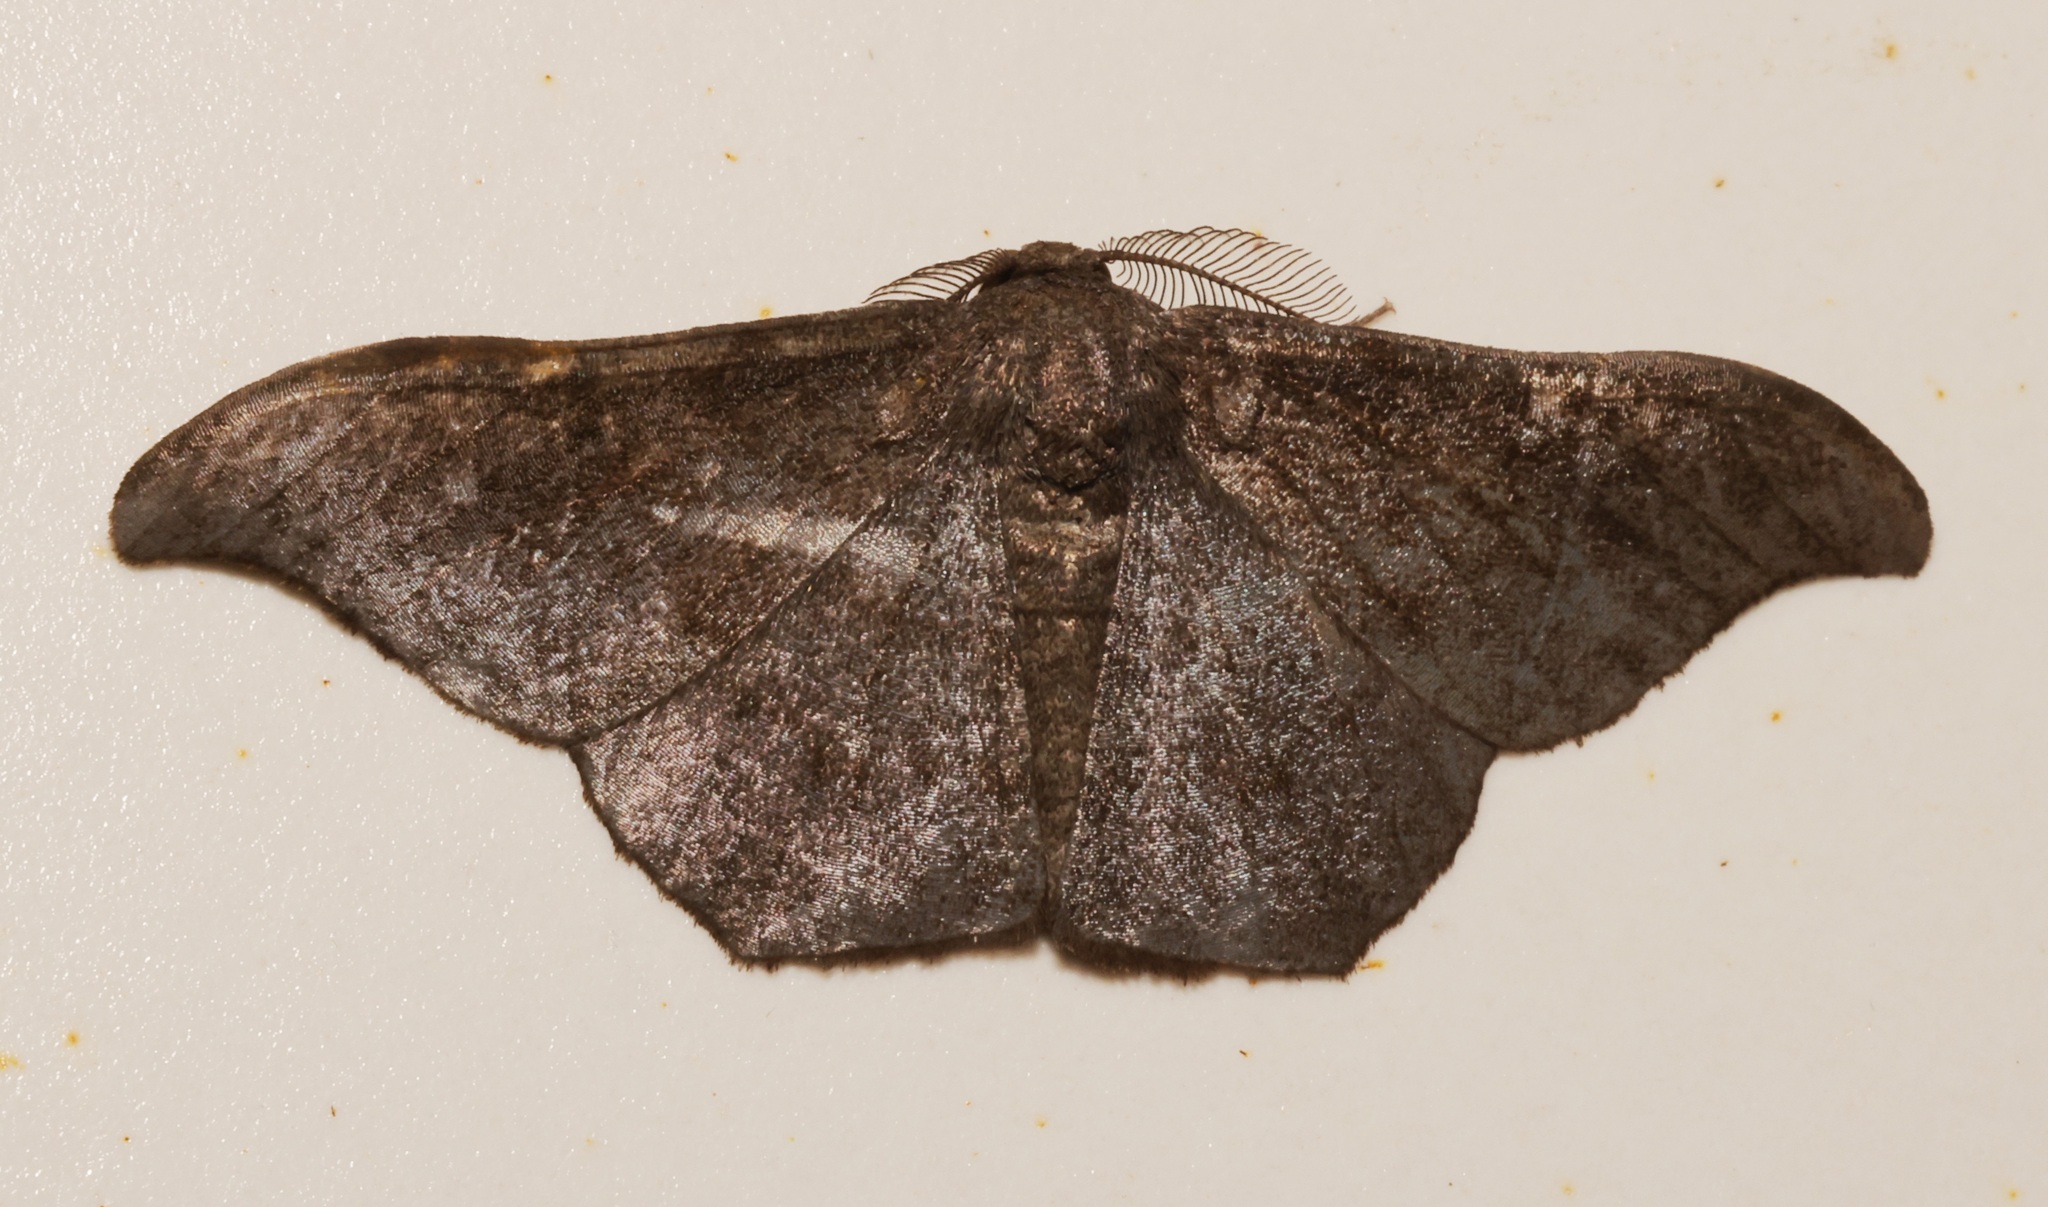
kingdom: Animalia
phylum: Arthropoda
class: Insecta
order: Lepidoptera
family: Geometridae
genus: Hyposidra
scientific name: Hyposidra talaca
